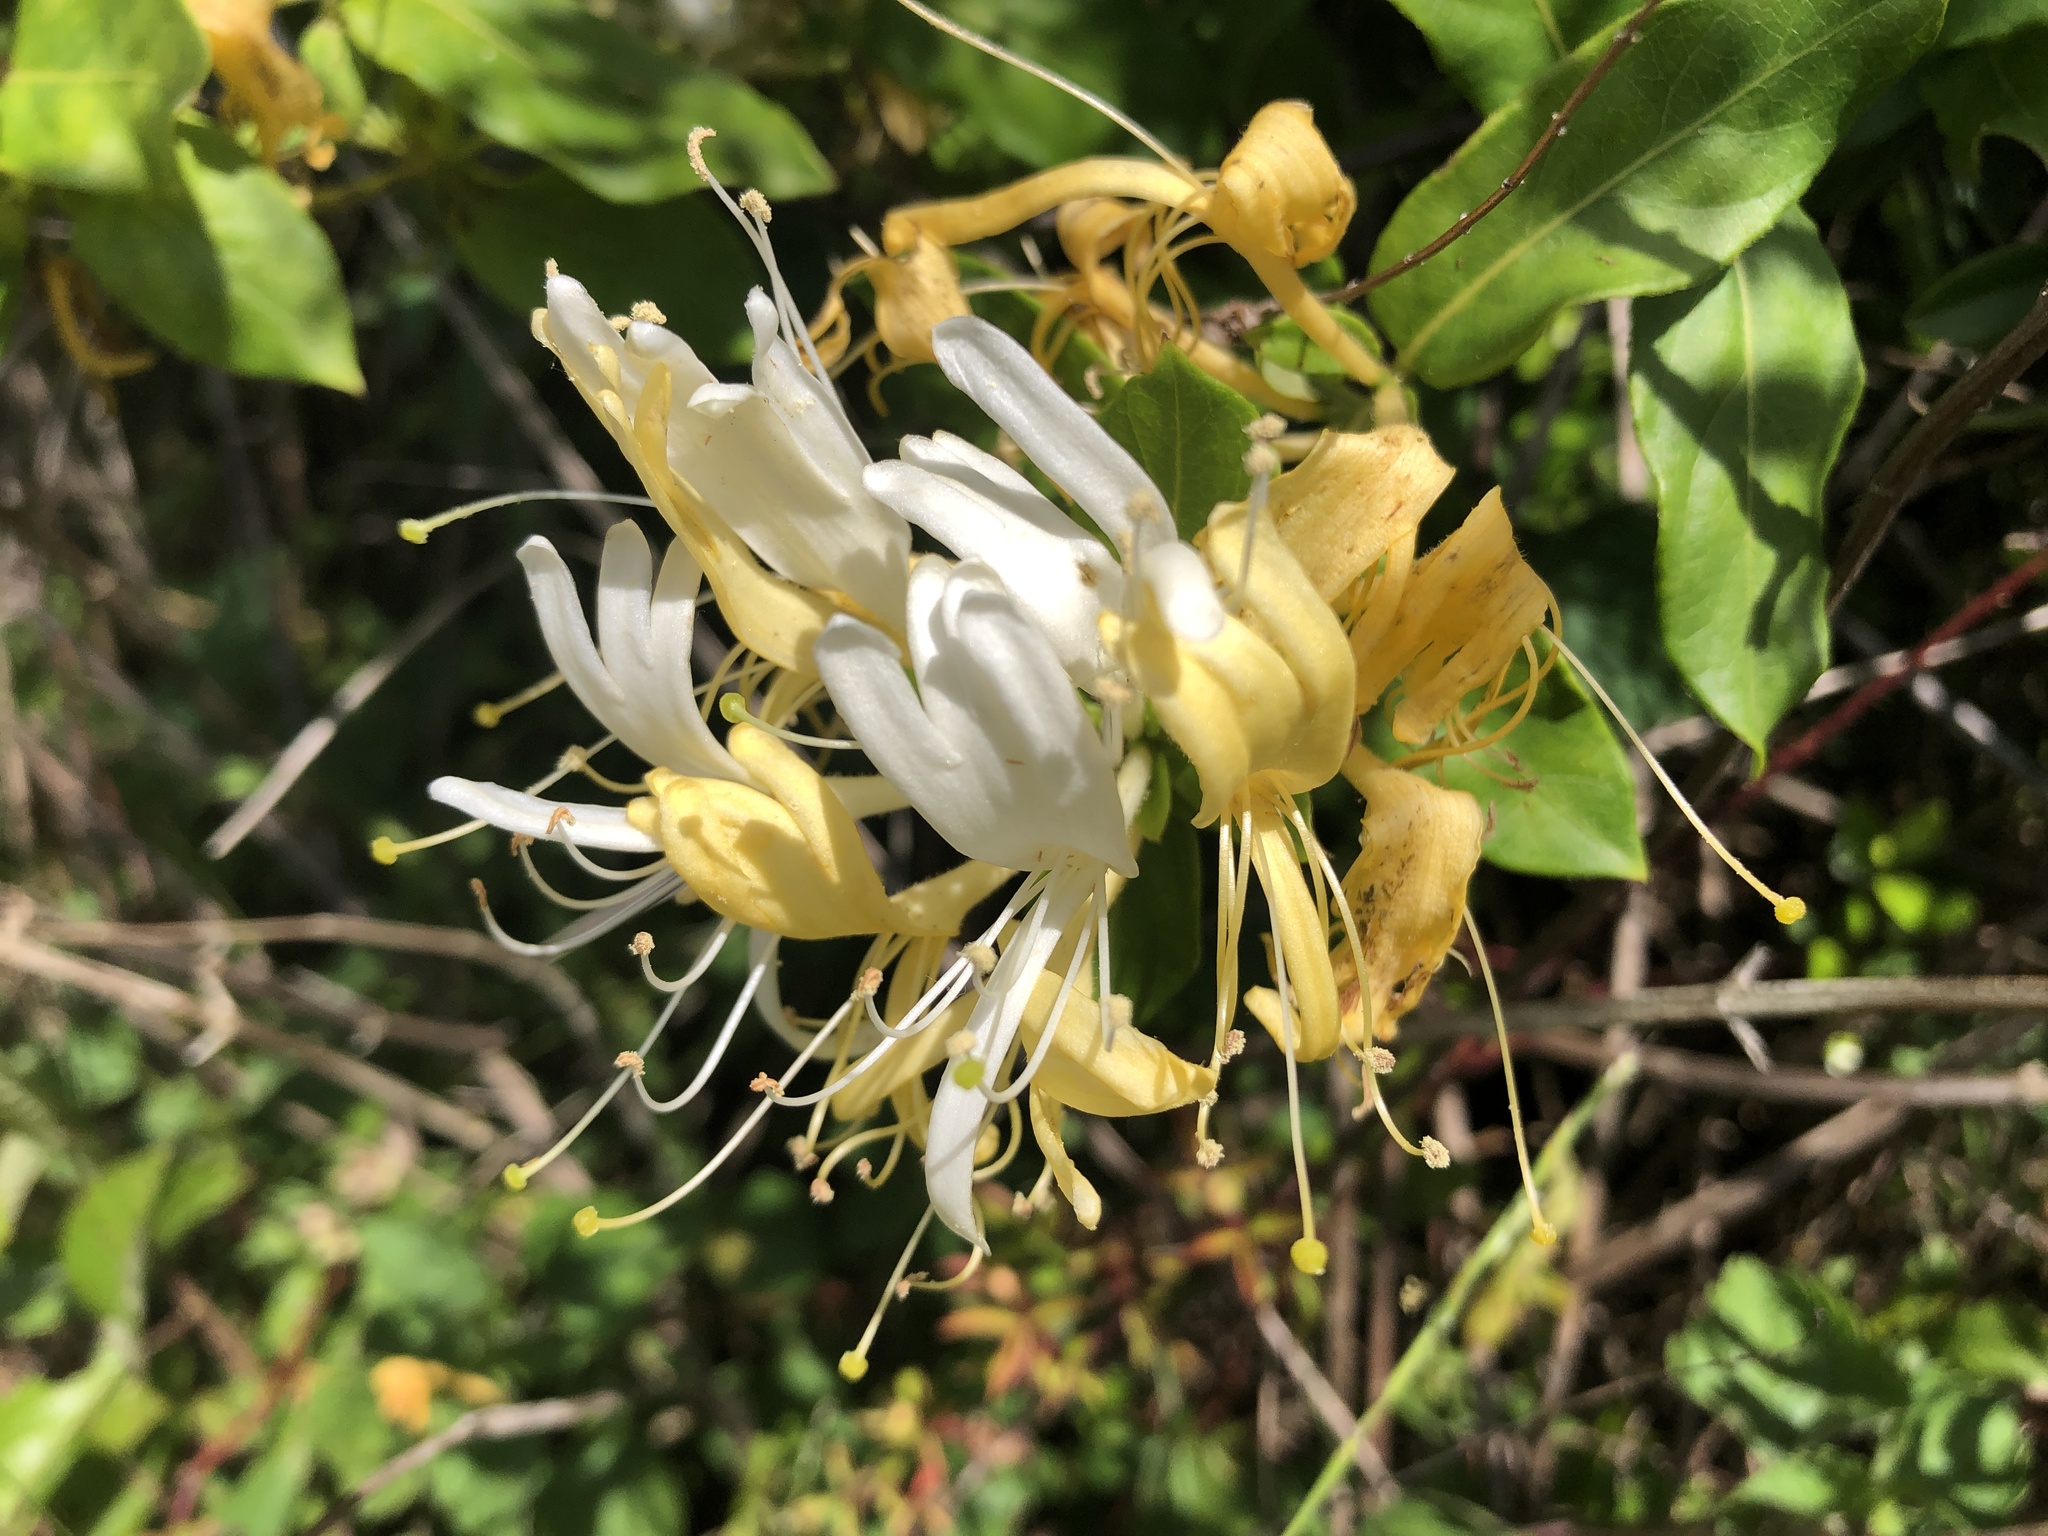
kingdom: Plantae
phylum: Tracheophyta
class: Magnoliopsida
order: Dipsacales
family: Caprifoliaceae
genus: Lonicera
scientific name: Lonicera japonica
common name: Japanese honeysuckle
